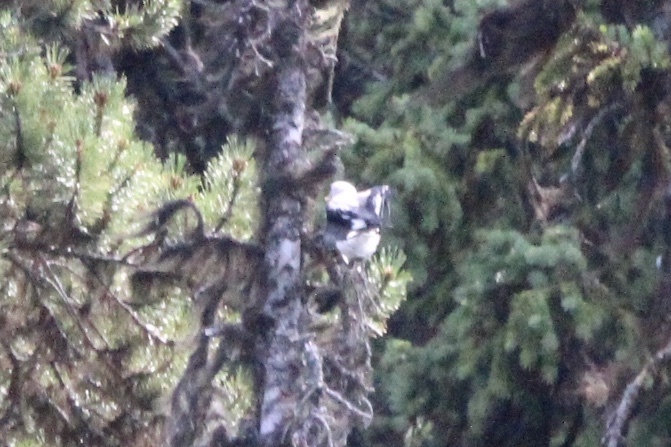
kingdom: Animalia
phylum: Chordata
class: Aves
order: Passeriformes
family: Corvidae
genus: Nucifraga
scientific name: Nucifraga columbiana
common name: Clark's nutcracker
